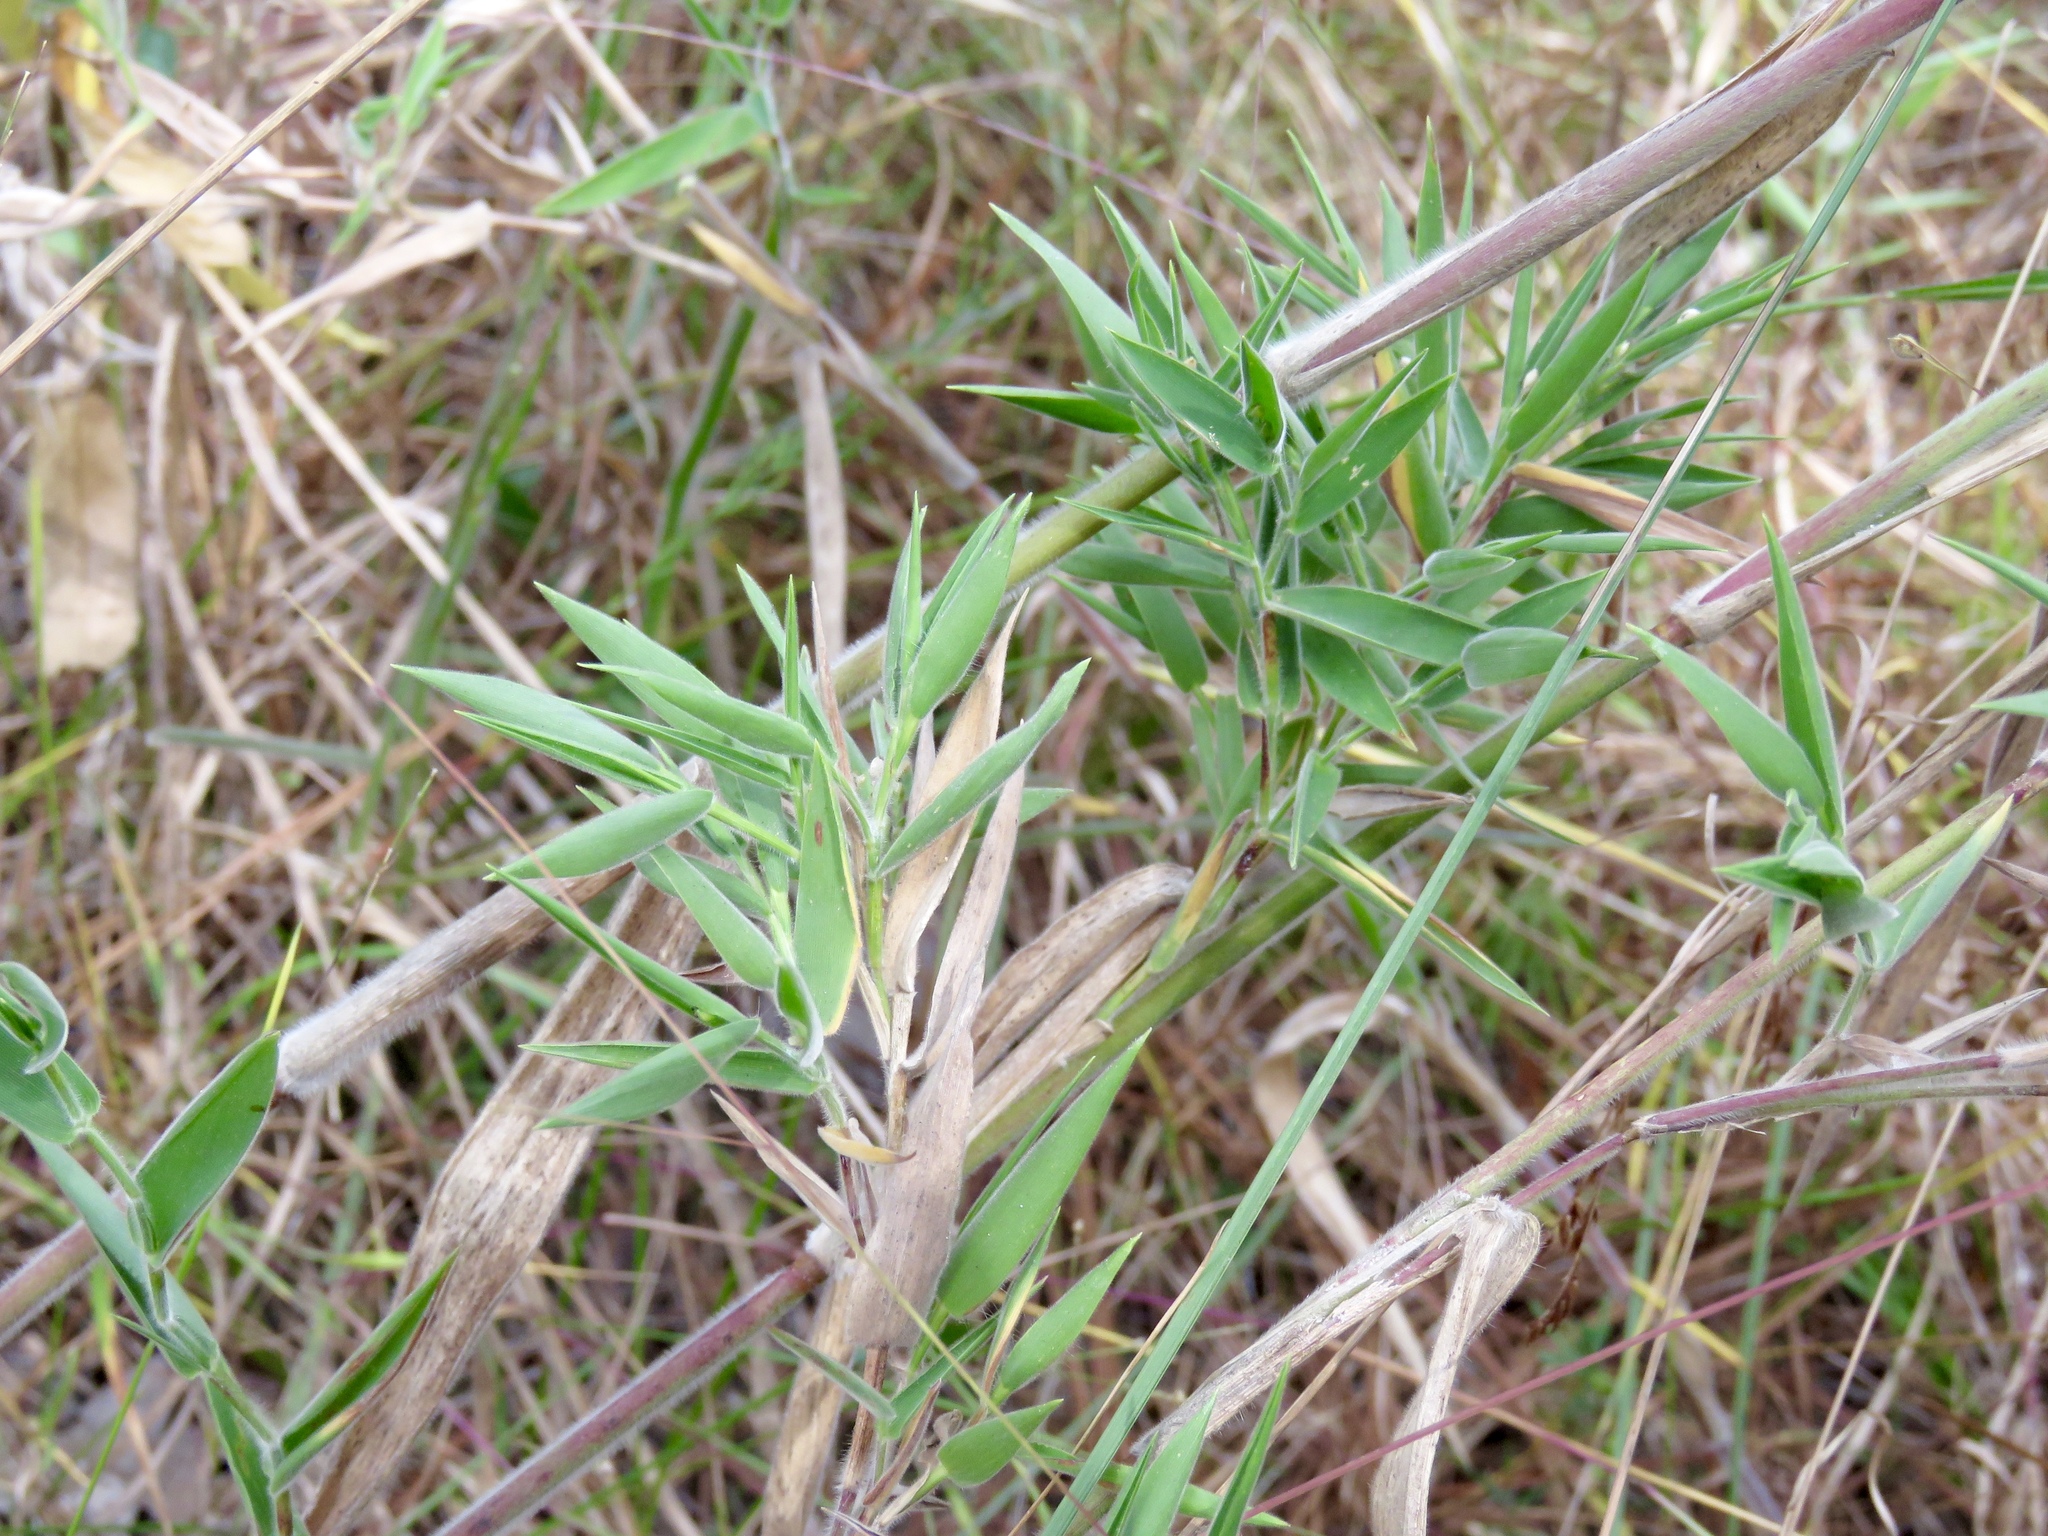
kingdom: Plantae
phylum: Tracheophyta
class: Liliopsida
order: Poales
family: Poaceae
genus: Dichanthelium
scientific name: Dichanthelium scoparium
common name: Velvety panic grass
